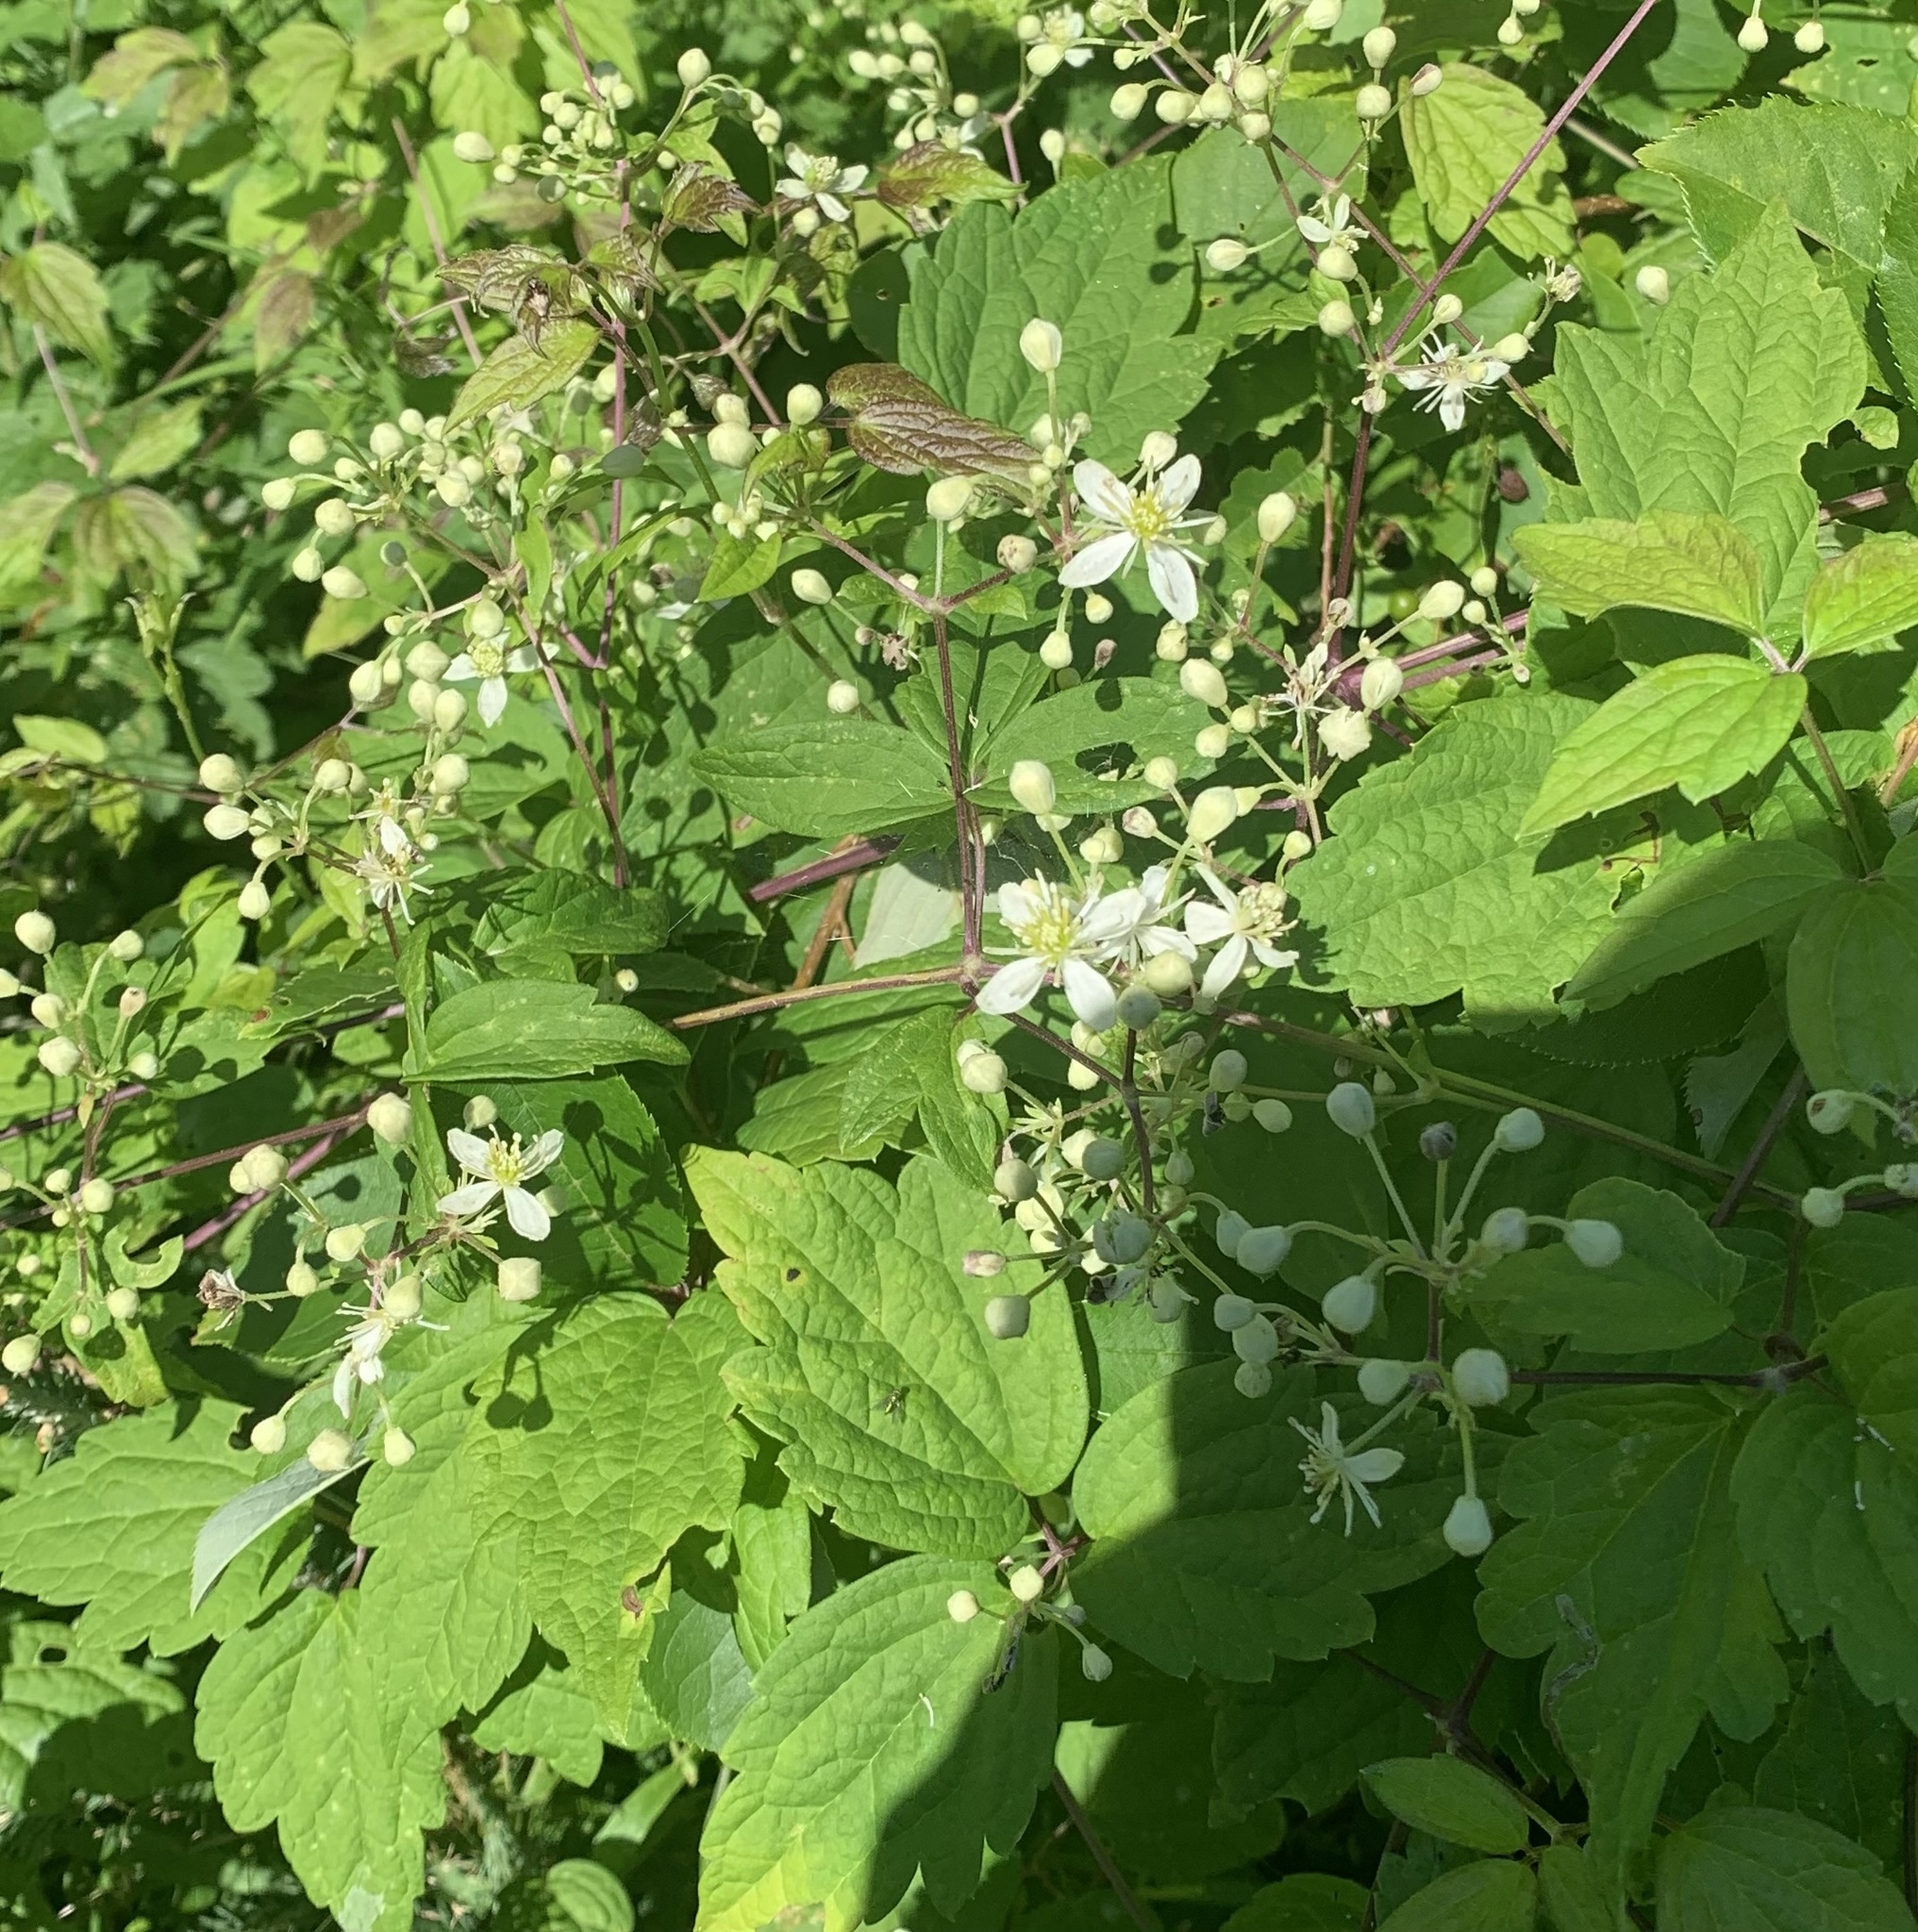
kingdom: Plantae
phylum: Tracheophyta
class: Magnoliopsida
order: Ranunculales
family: Ranunculaceae
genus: Clematis
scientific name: Clematis virginiana
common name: Virgin's-bower
